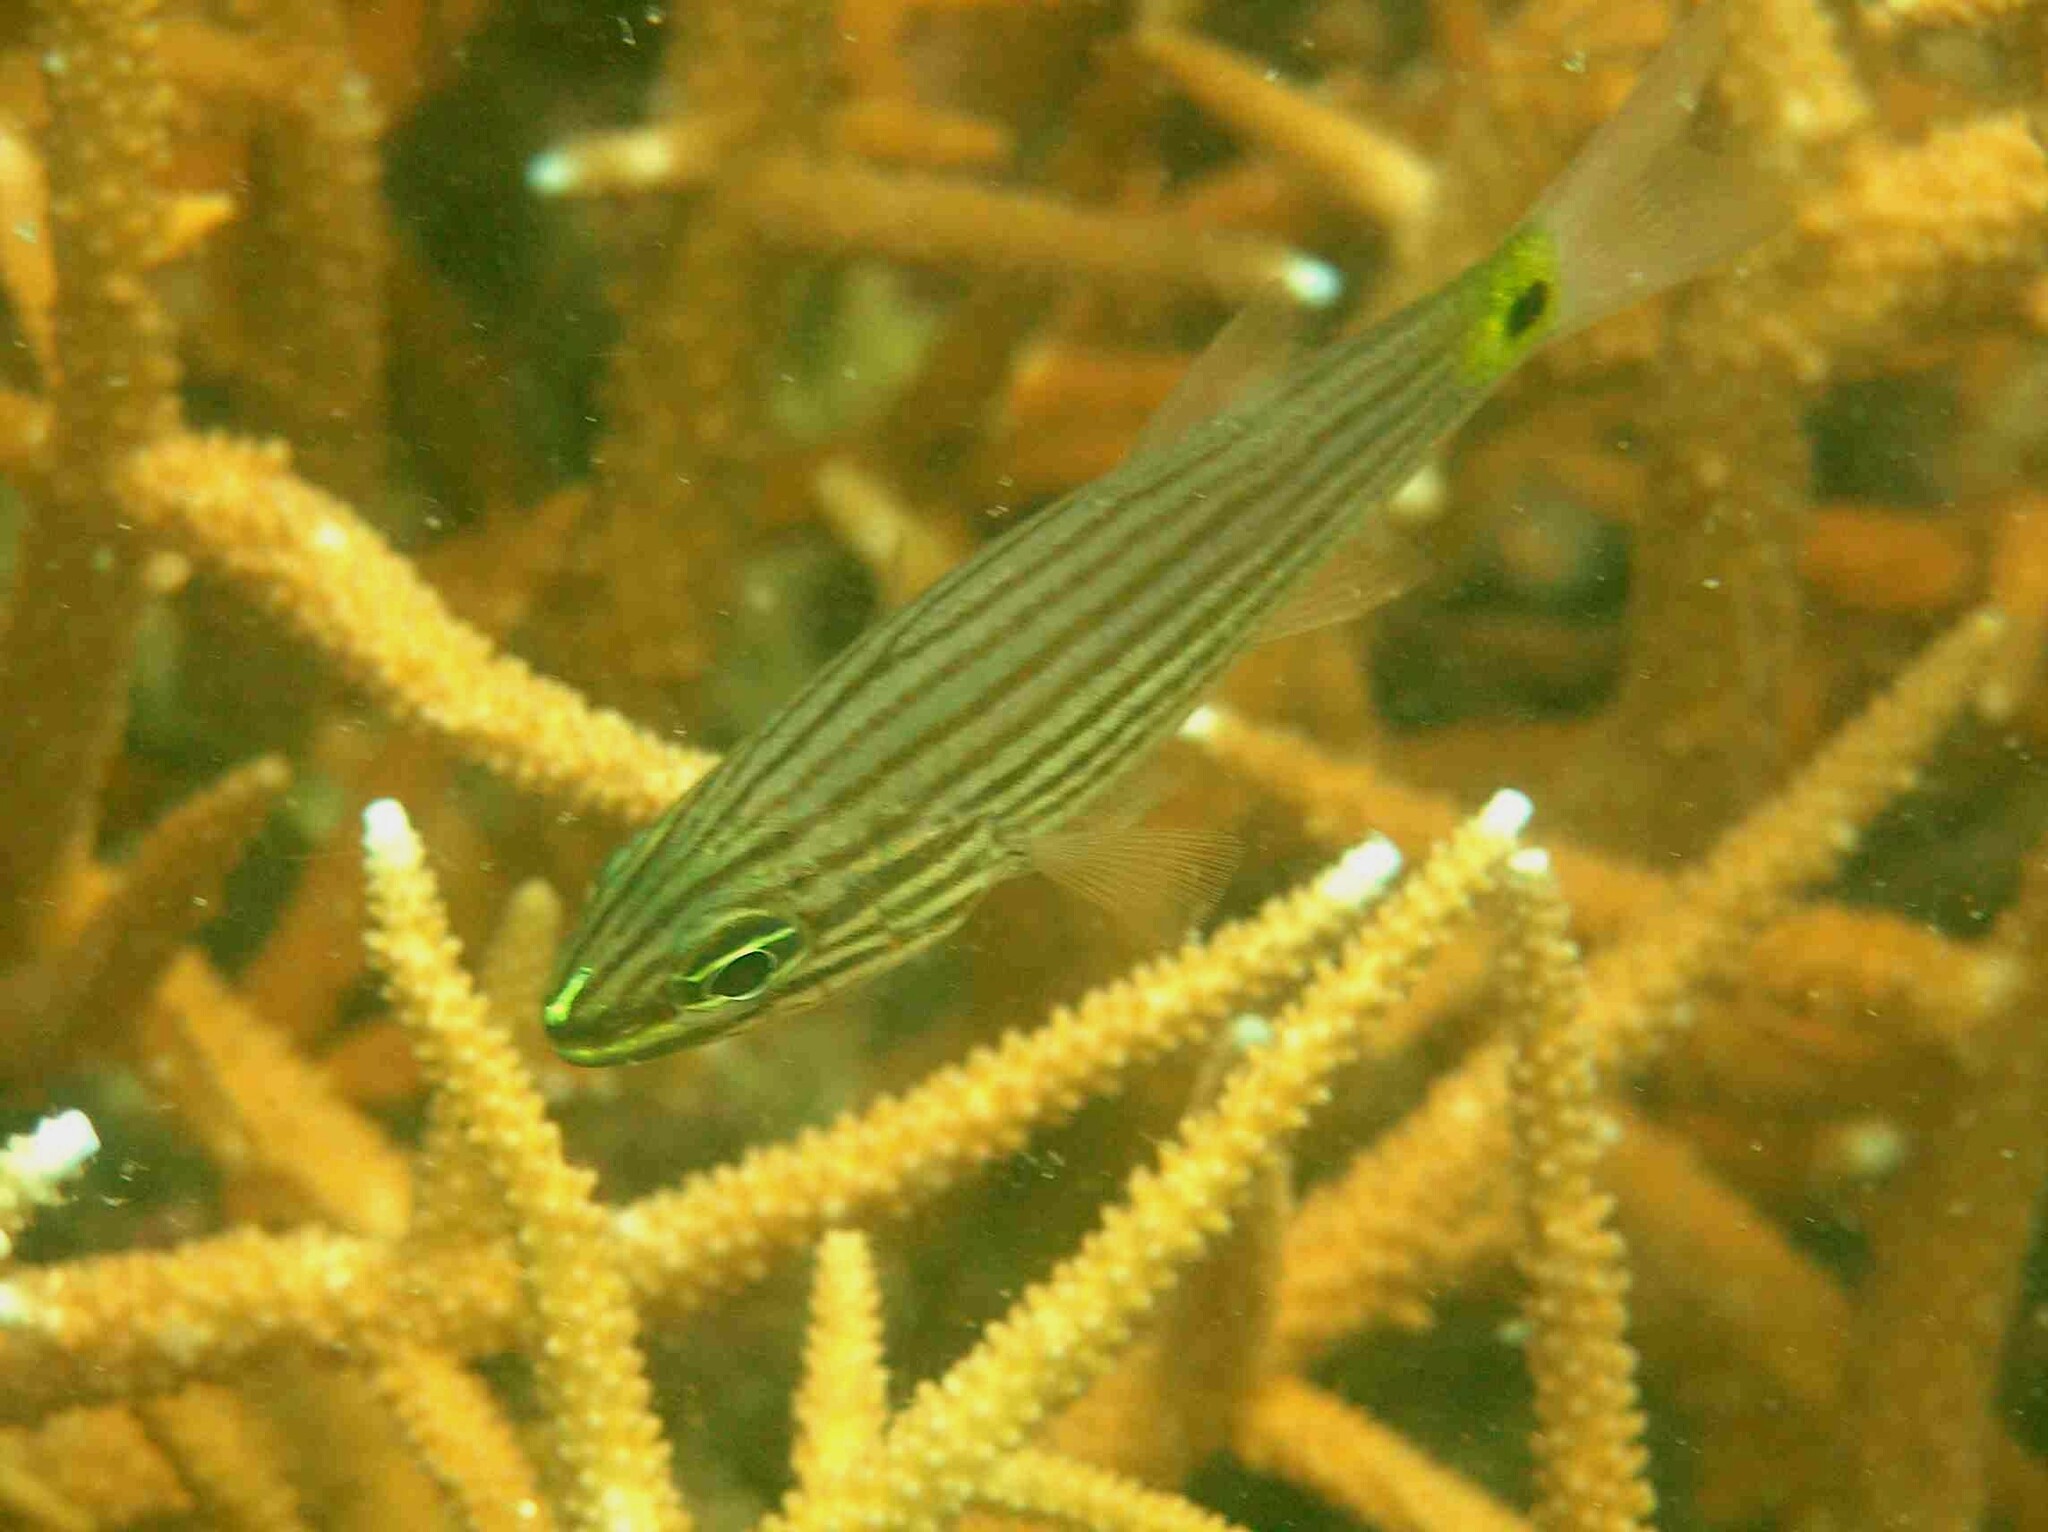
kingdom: Animalia
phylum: Chordata
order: Perciformes
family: Apogonidae
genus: Cheilodipterus
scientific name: Cheilodipterus artus
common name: Wolf cardinal
